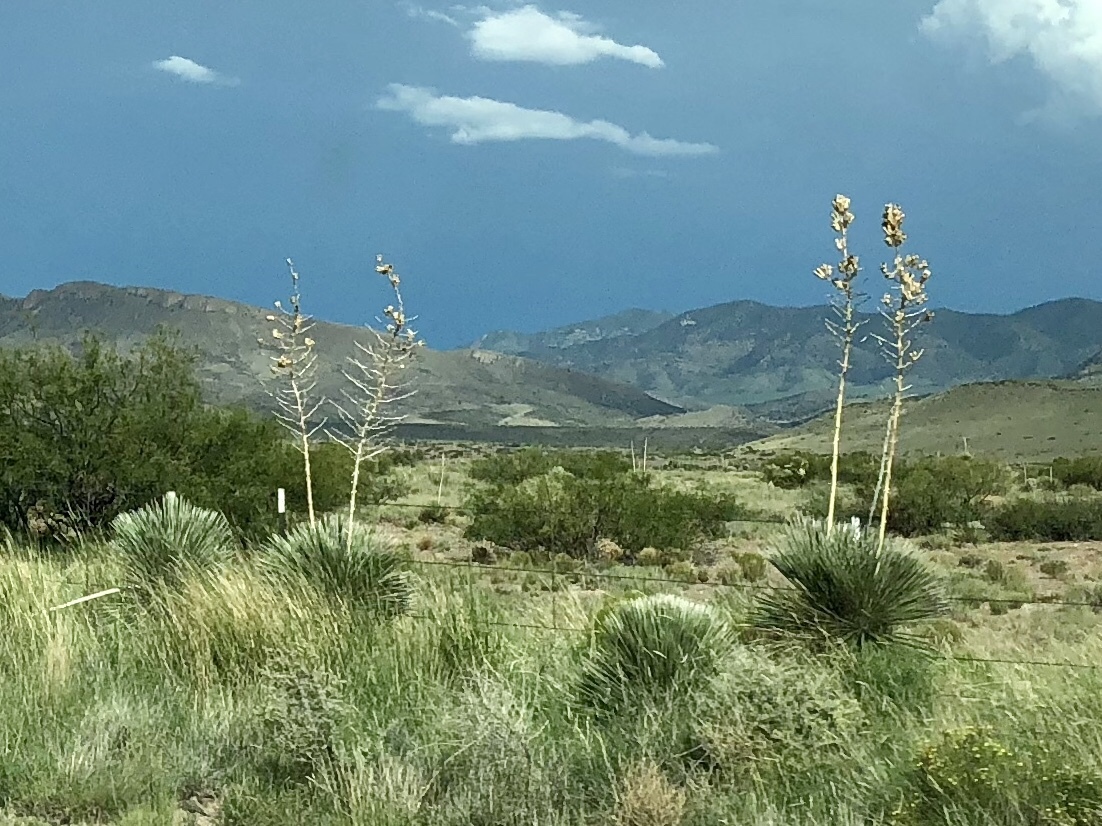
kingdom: Plantae
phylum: Tracheophyta
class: Liliopsida
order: Asparagales
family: Asparagaceae
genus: Yucca
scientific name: Yucca elata
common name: Palmella
